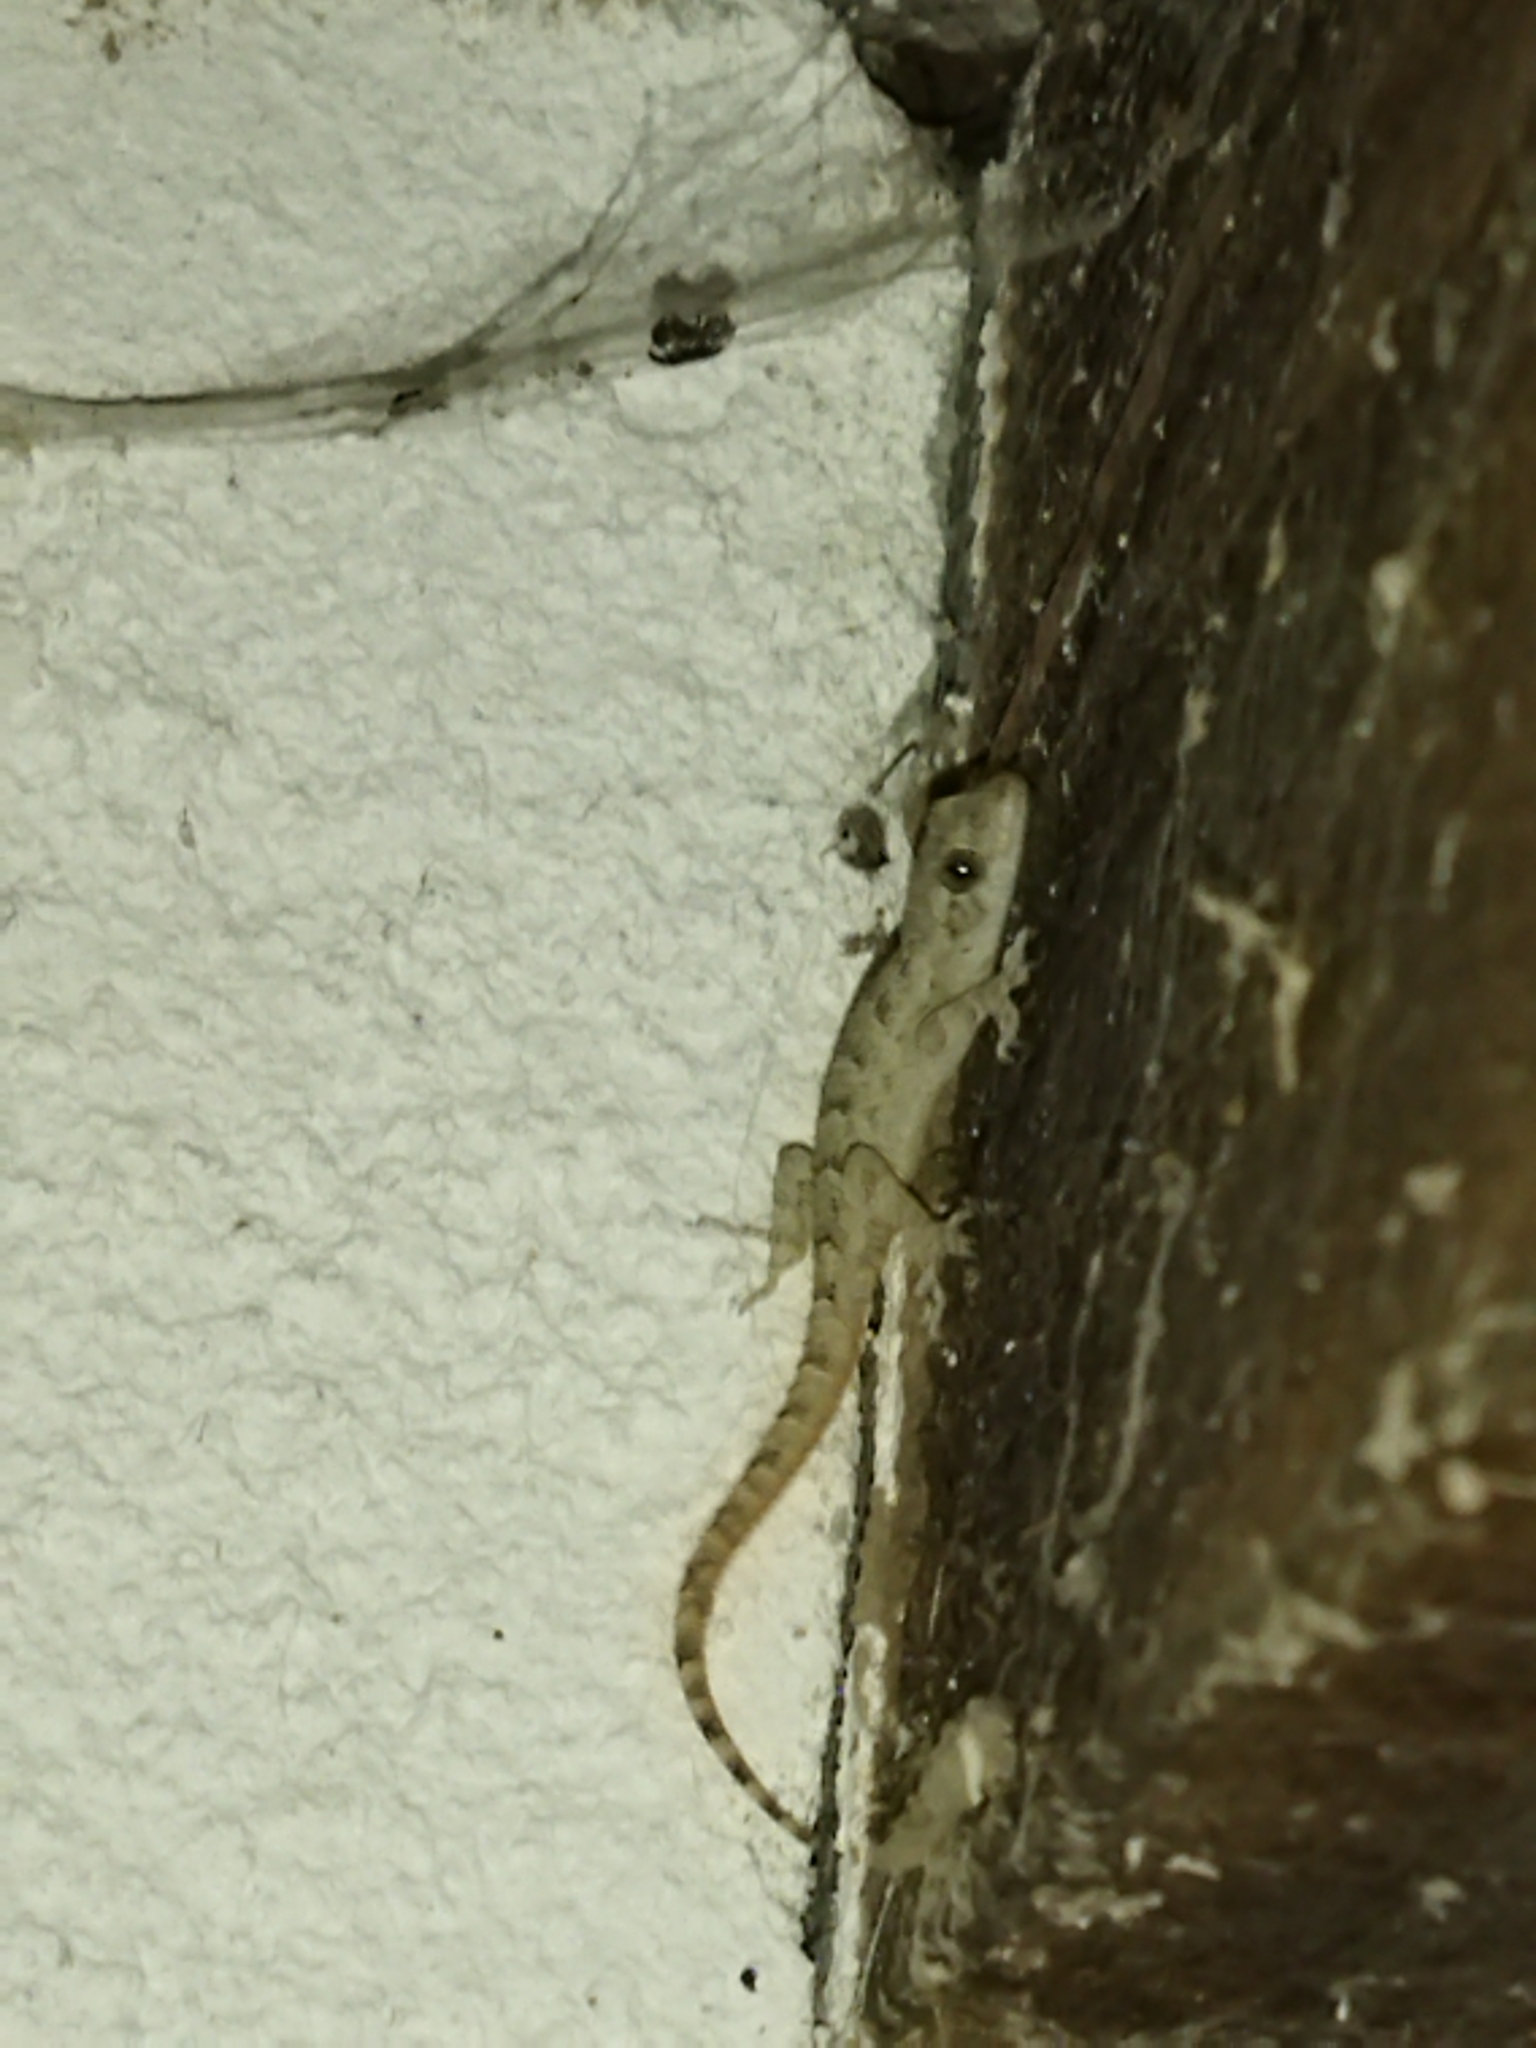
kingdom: Animalia
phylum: Chordata
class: Squamata
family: Gekkonidae
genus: Mediodactylus
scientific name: Mediodactylus kotschyi
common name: Kotschy's gecko
